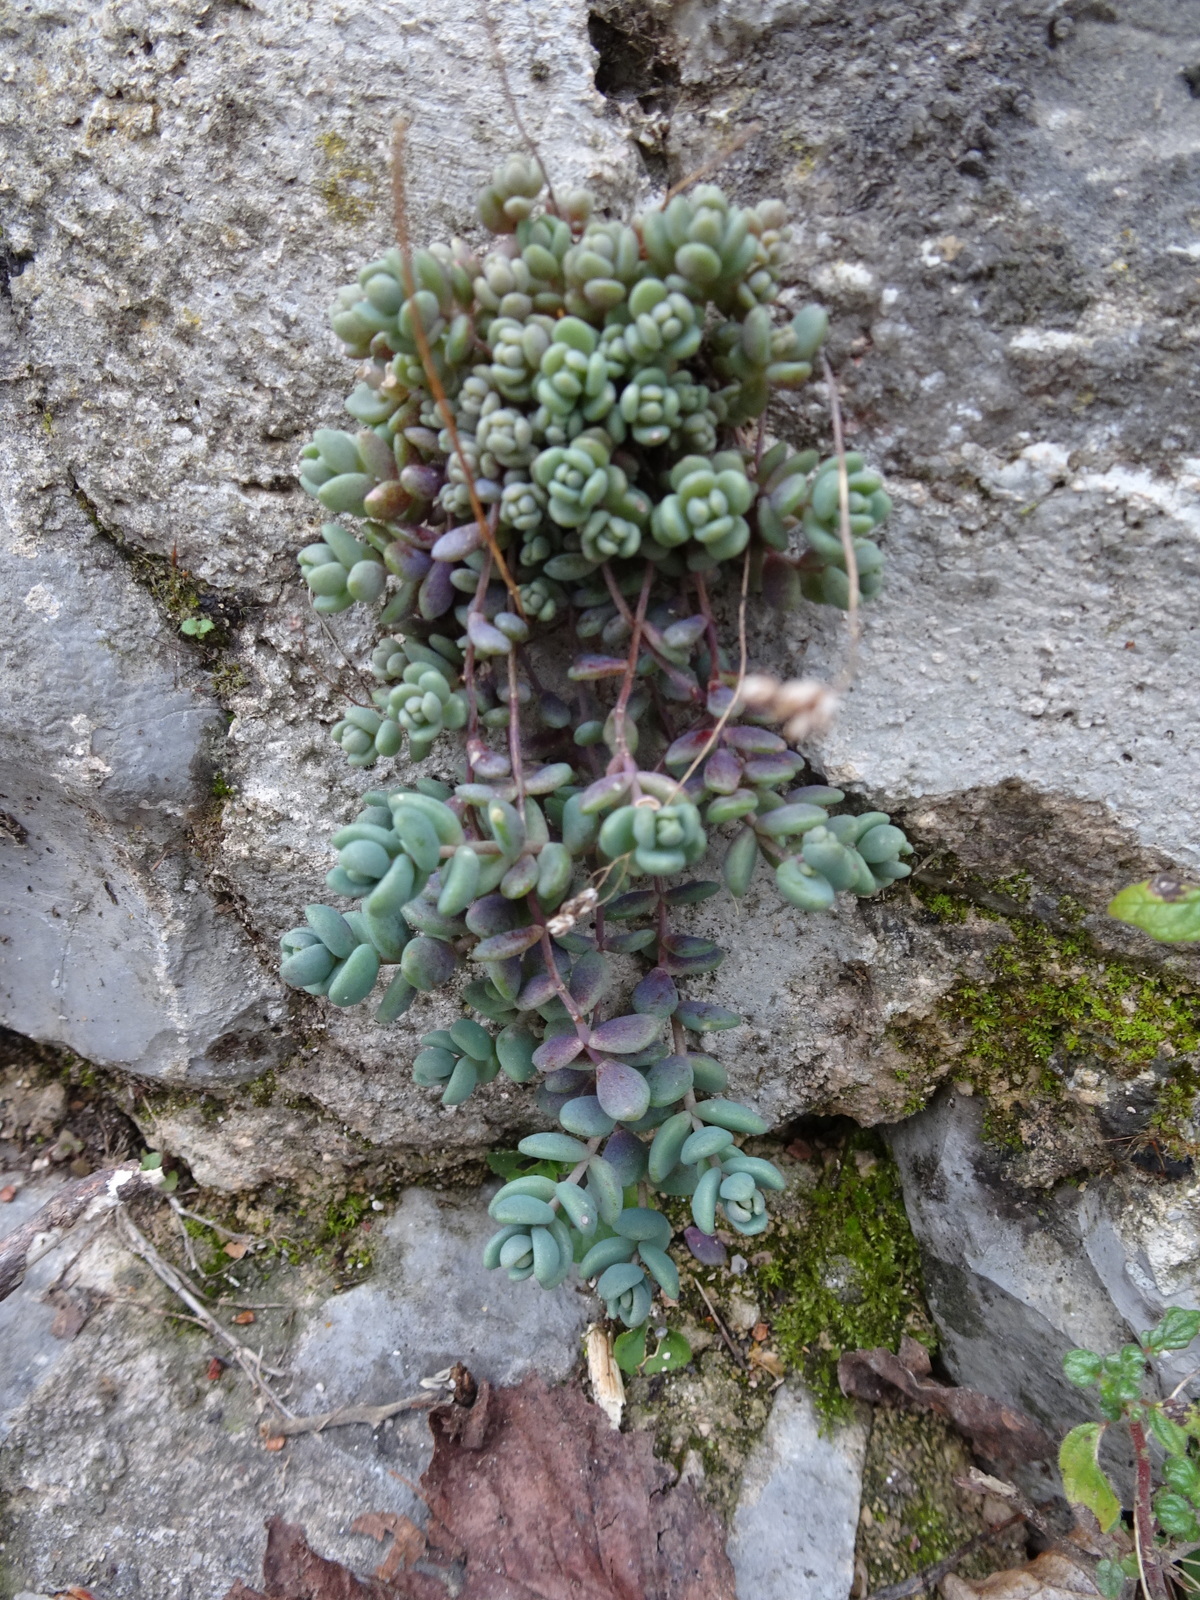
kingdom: Plantae
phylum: Tracheophyta
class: Magnoliopsida
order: Saxifragales
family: Crassulaceae
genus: Sedum
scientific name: Sedum dasyphyllum
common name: Thick-leaf stonecrop
